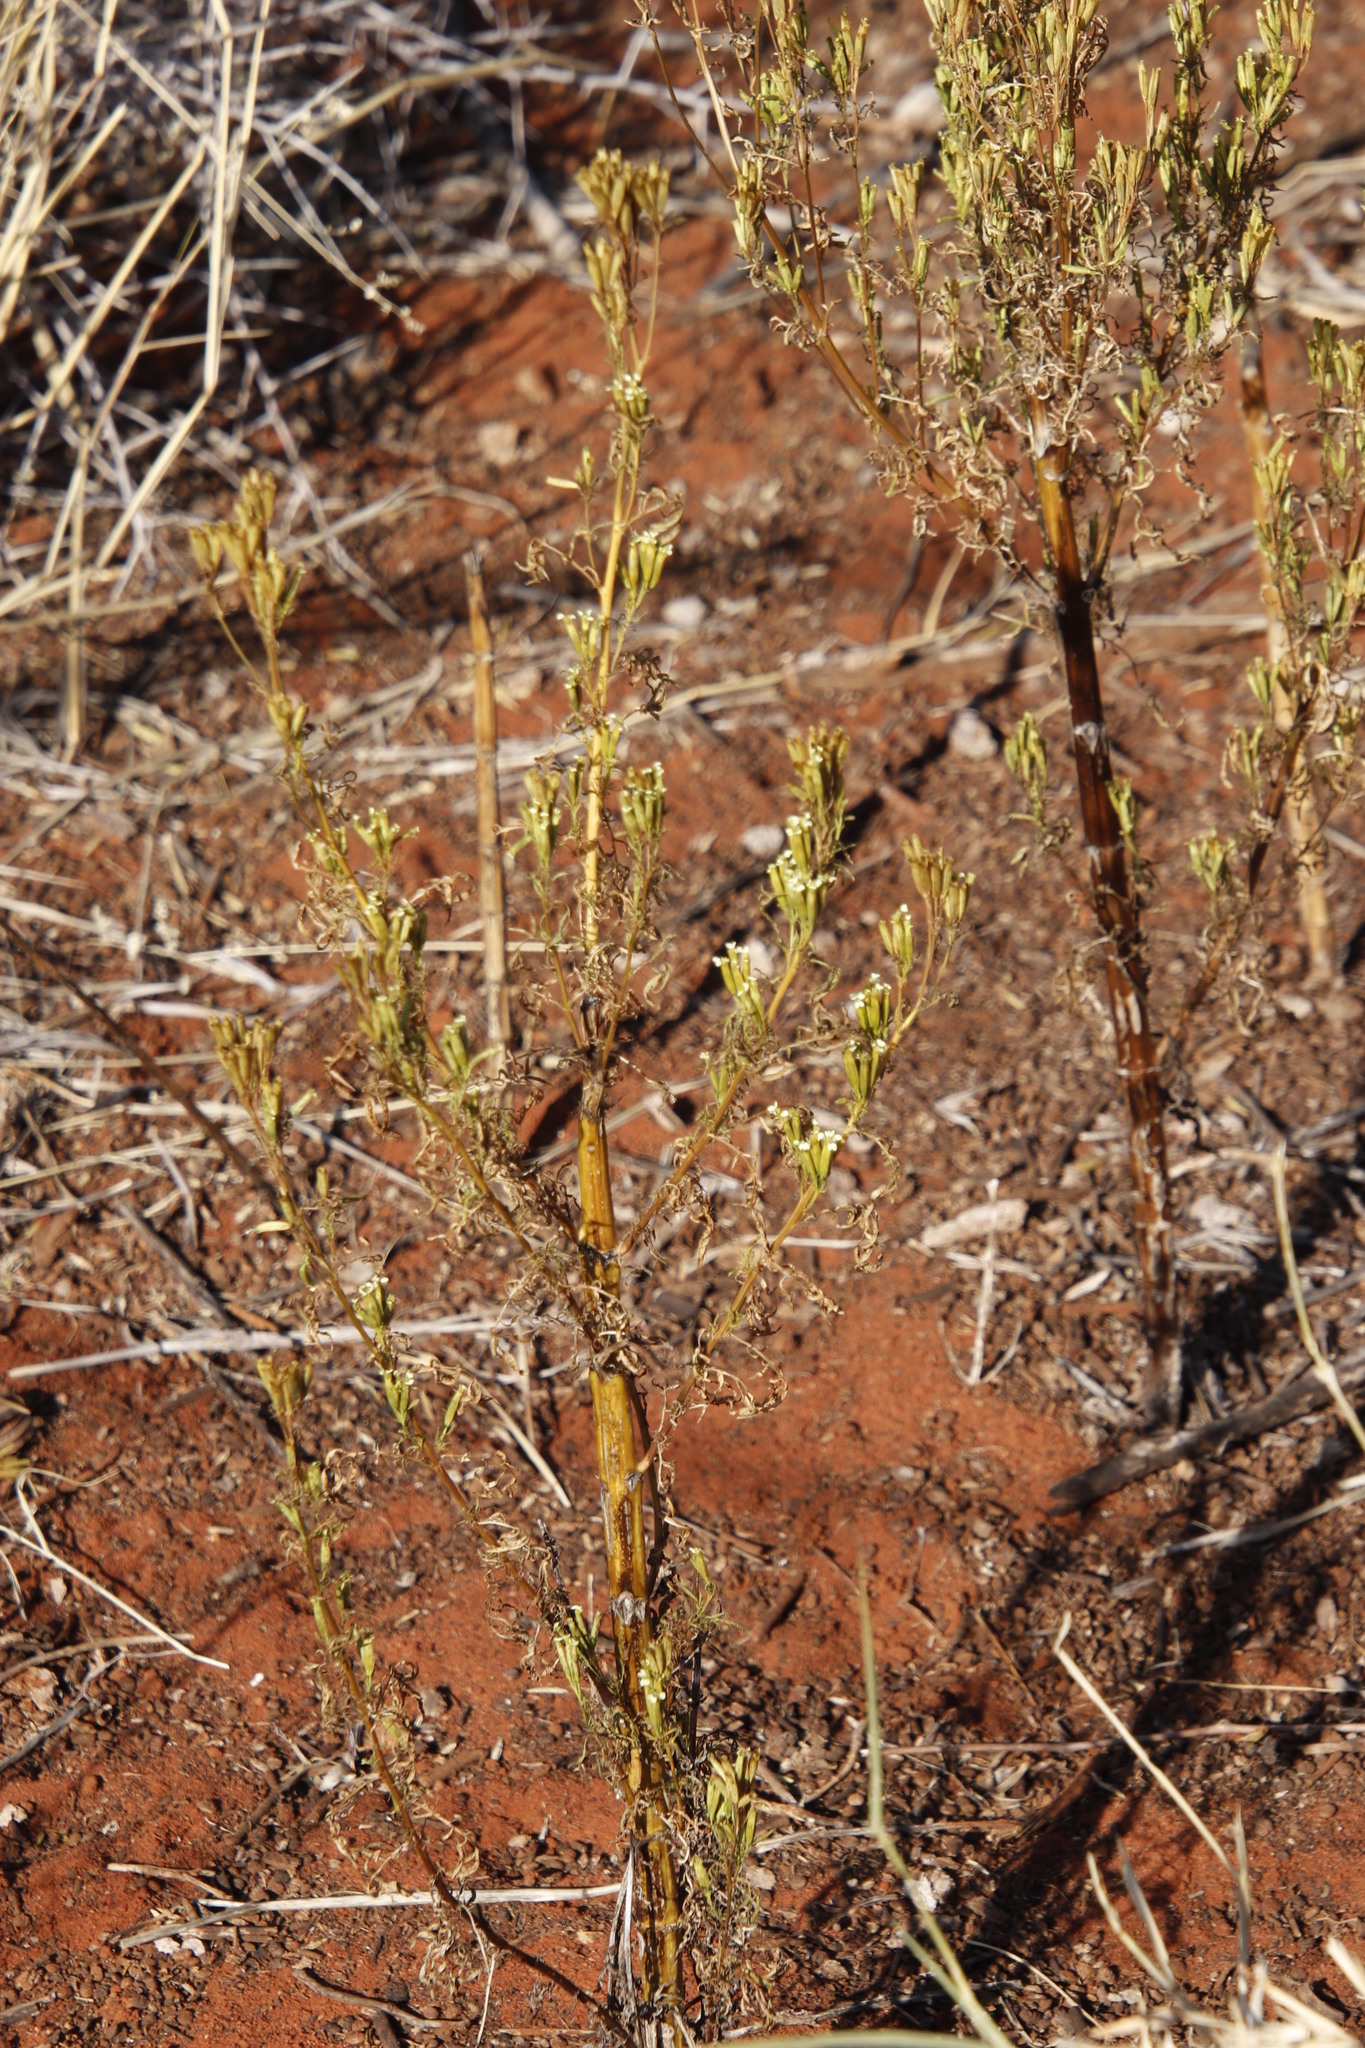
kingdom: Plantae
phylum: Tracheophyta
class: Magnoliopsida
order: Asterales
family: Asteraceae
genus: Tagetes
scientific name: Tagetes minuta
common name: Muster john henry
